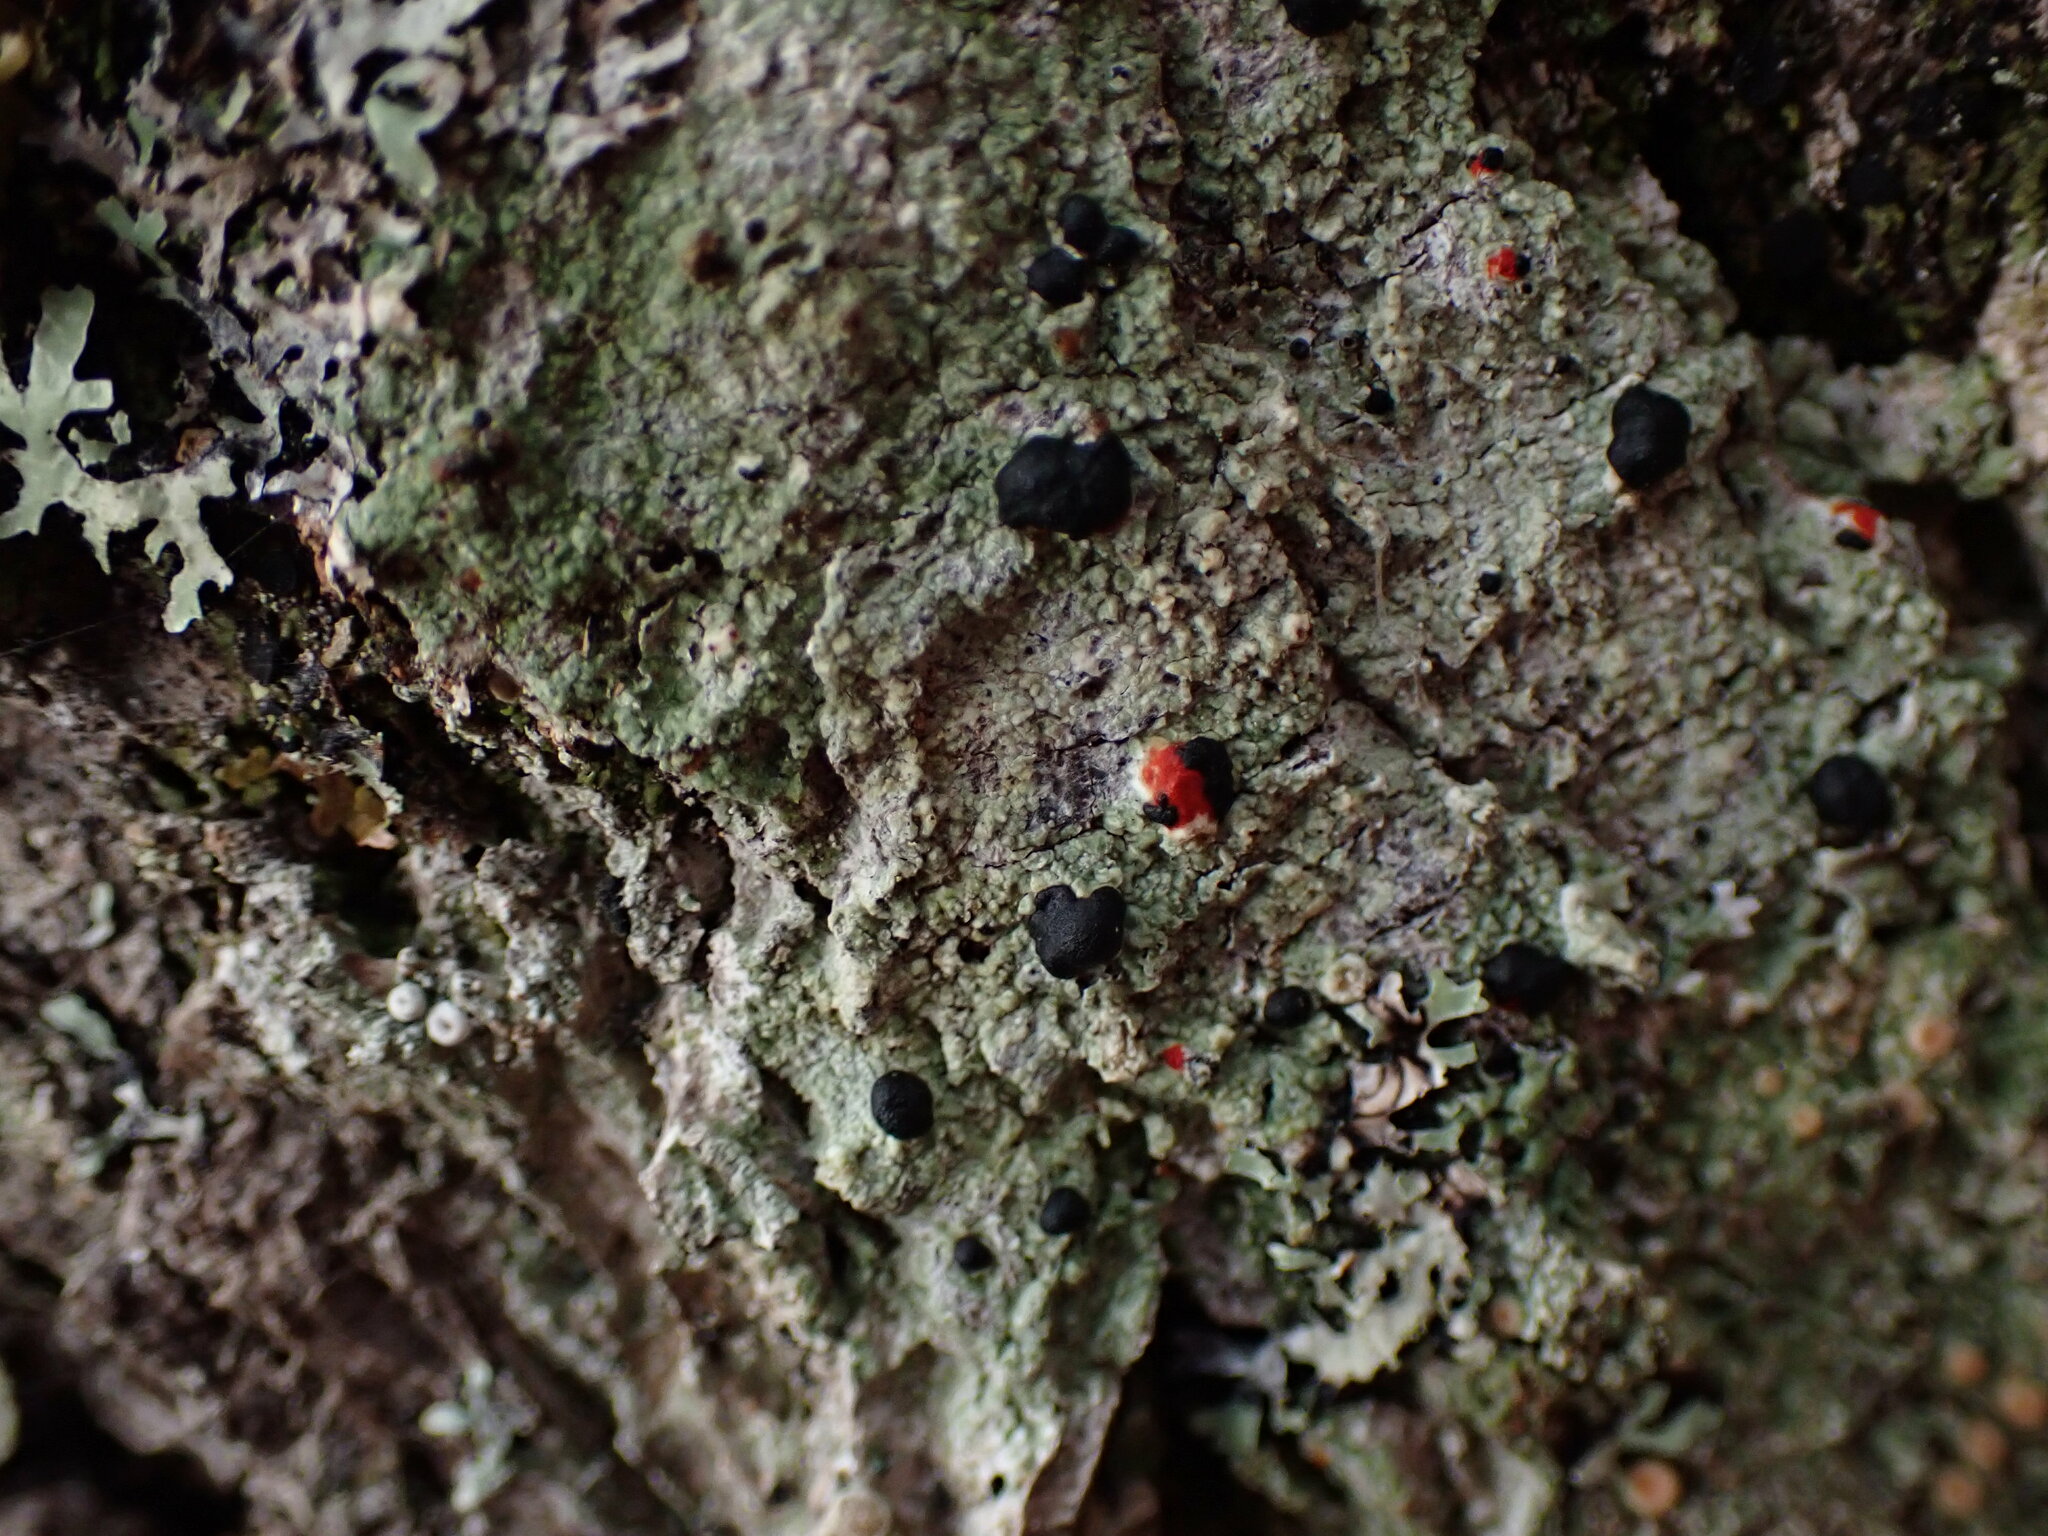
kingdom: Fungi
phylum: Ascomycota
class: Lecanoromycetes
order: Lecanorales
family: Tephromelataceae
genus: Mycoblastus
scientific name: Mycoblastus sanguinarius
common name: Bloody-heart lichen
